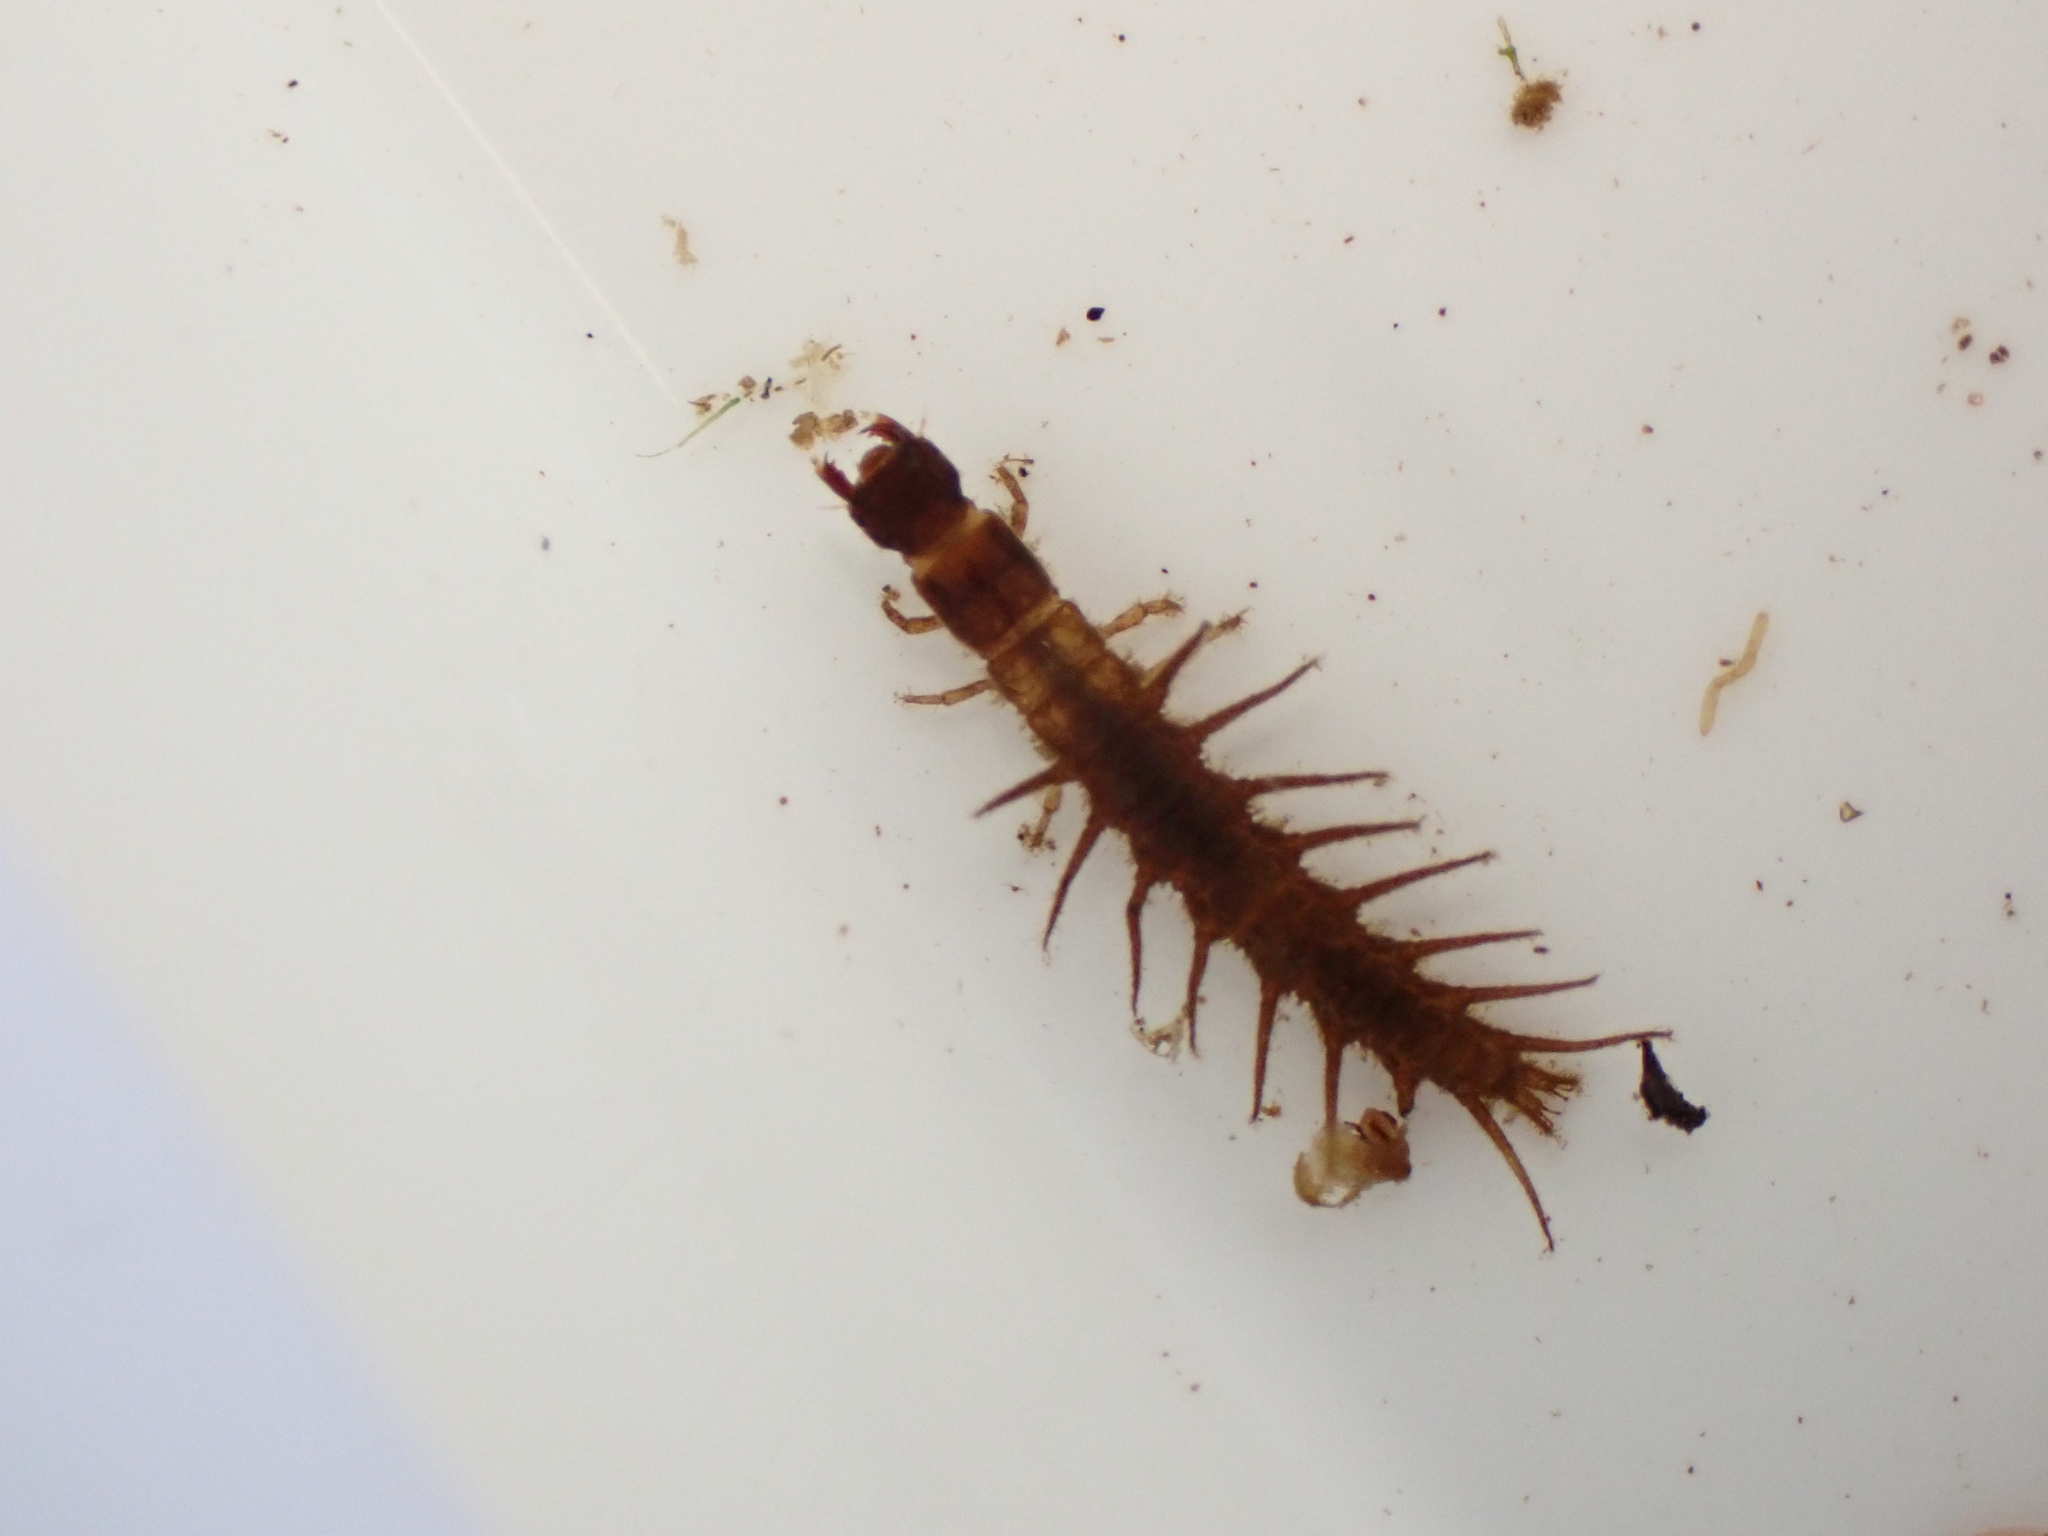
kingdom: Animalia
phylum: Arthropoda
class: Insecta
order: Megaloptera
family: Corydalidae
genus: Archichauliodes
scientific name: Archichauliodes diversus
